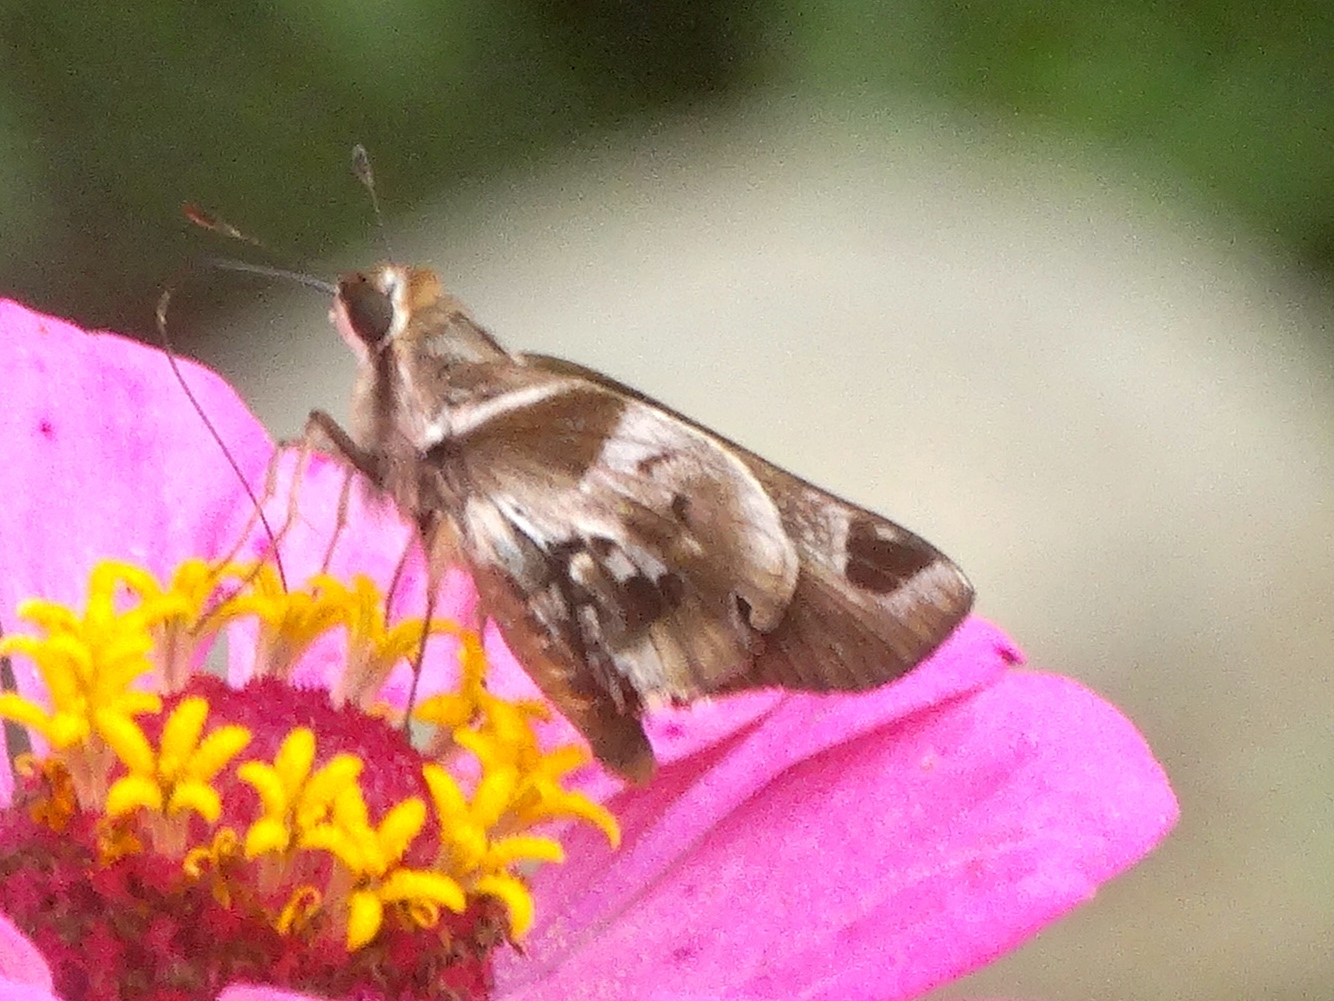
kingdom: Animalia
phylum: Arthropoda
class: Insecta
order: Lepidoptera
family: Hesperiidae
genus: Thespieus
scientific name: Thespieus dalman
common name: Chalk-marked skipper
